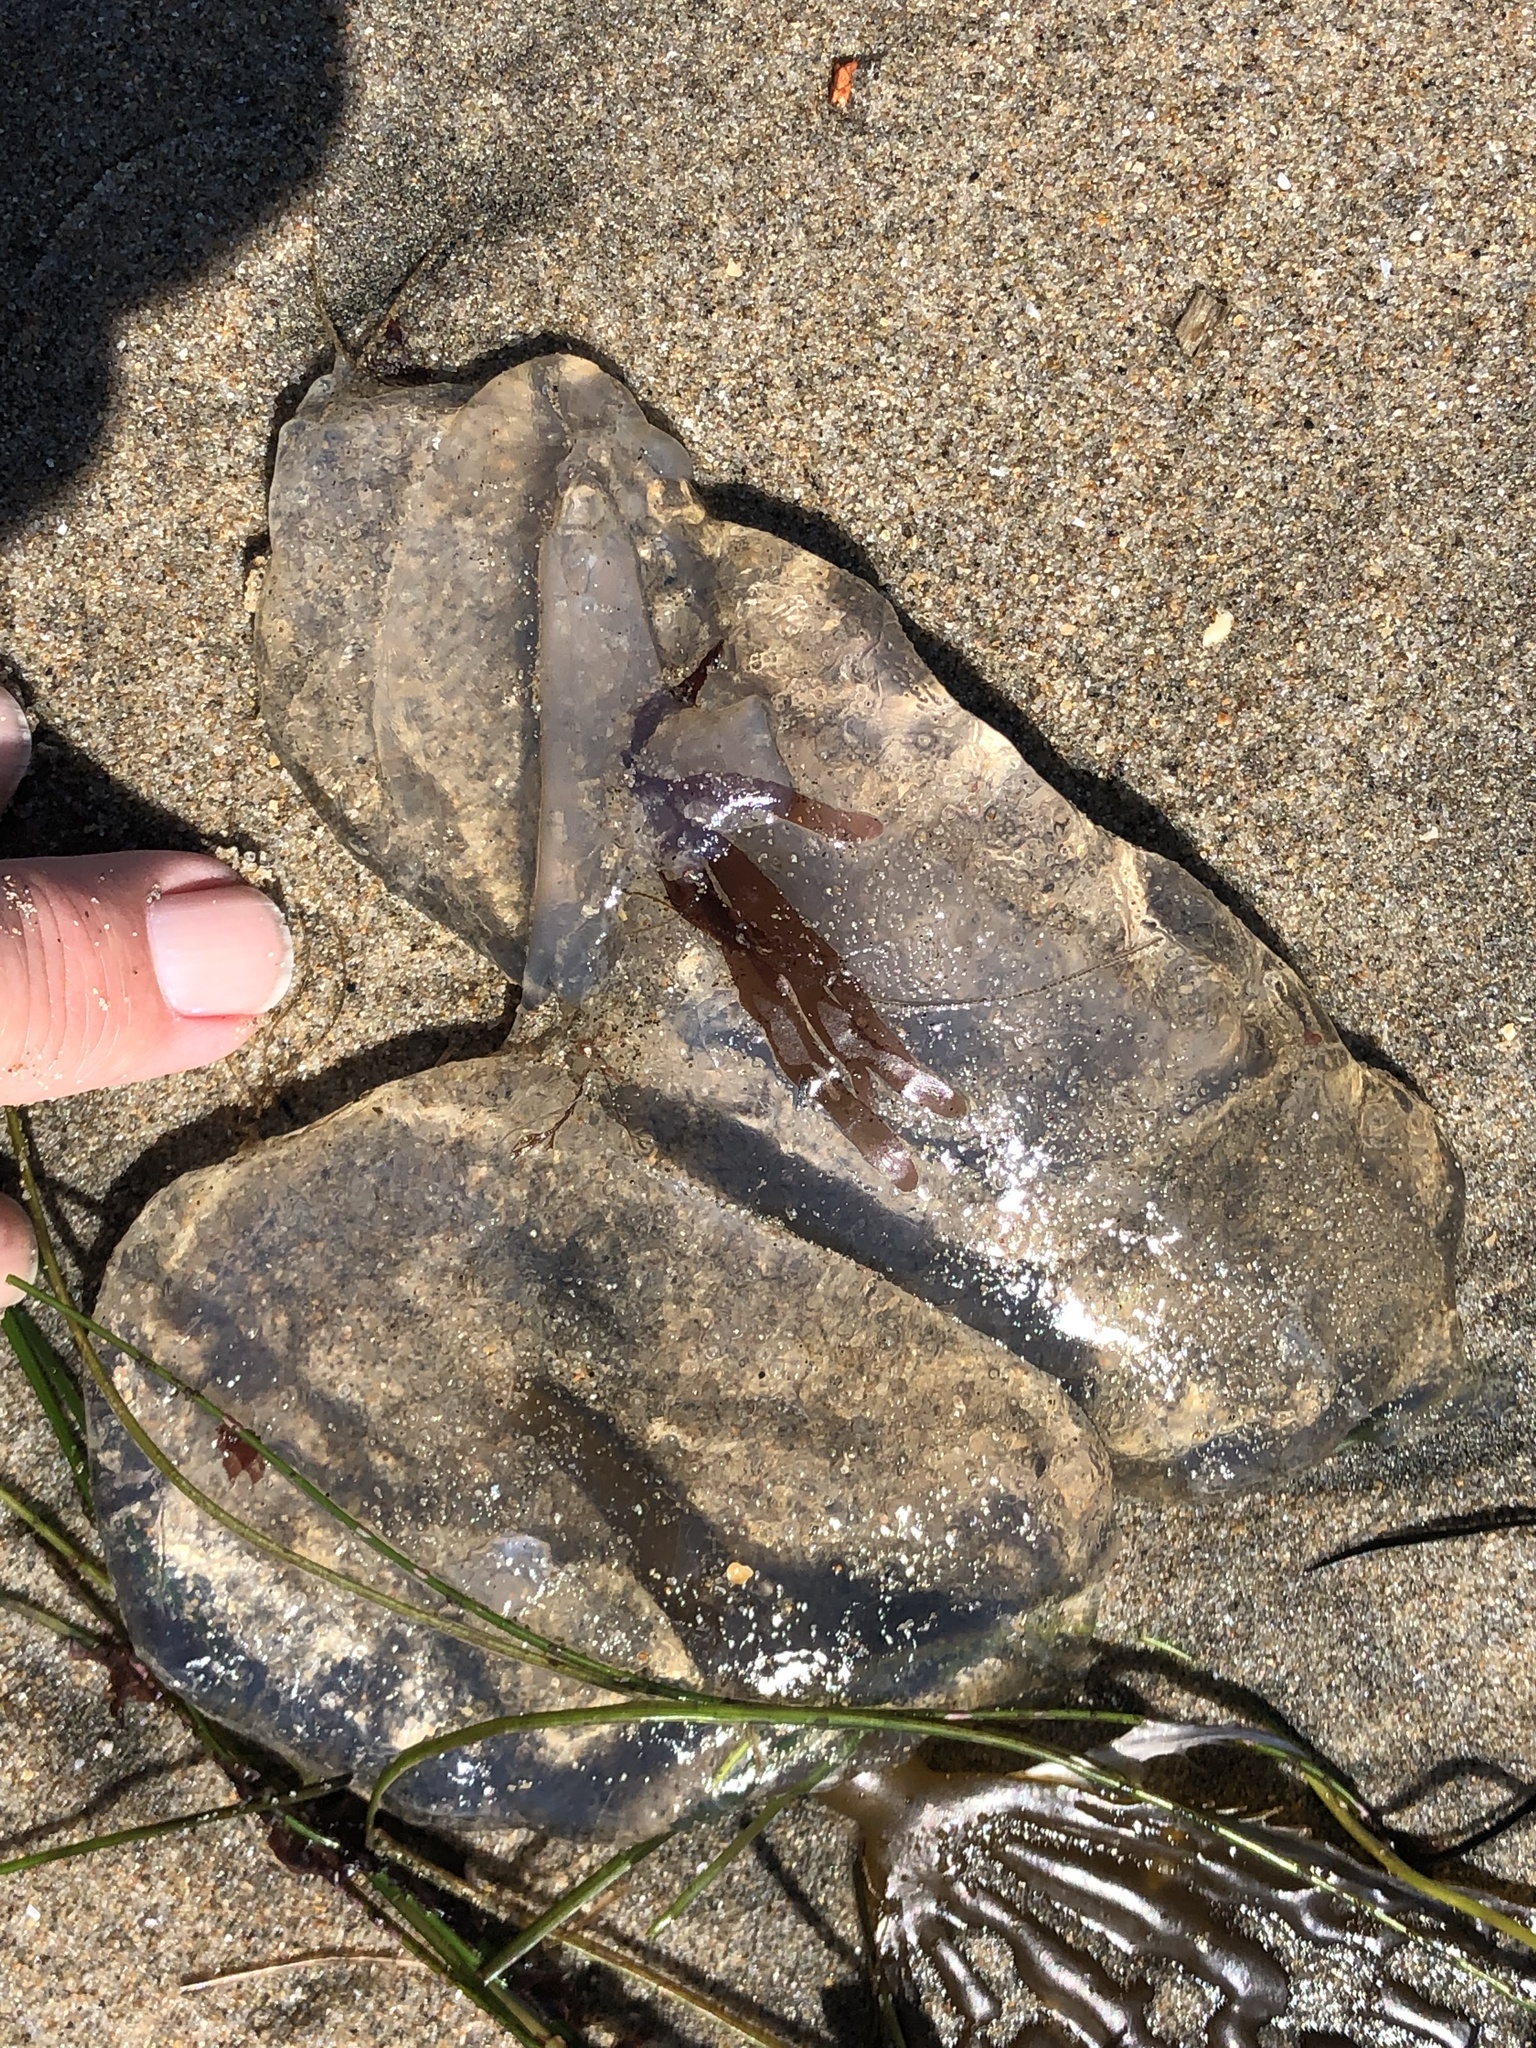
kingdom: Animalia
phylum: Cnidaria
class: Scyphozoa
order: Semaeostomeae
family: Pelagiidae
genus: Chrysaora
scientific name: Chrysaora fuscescens
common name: Sea nettle
